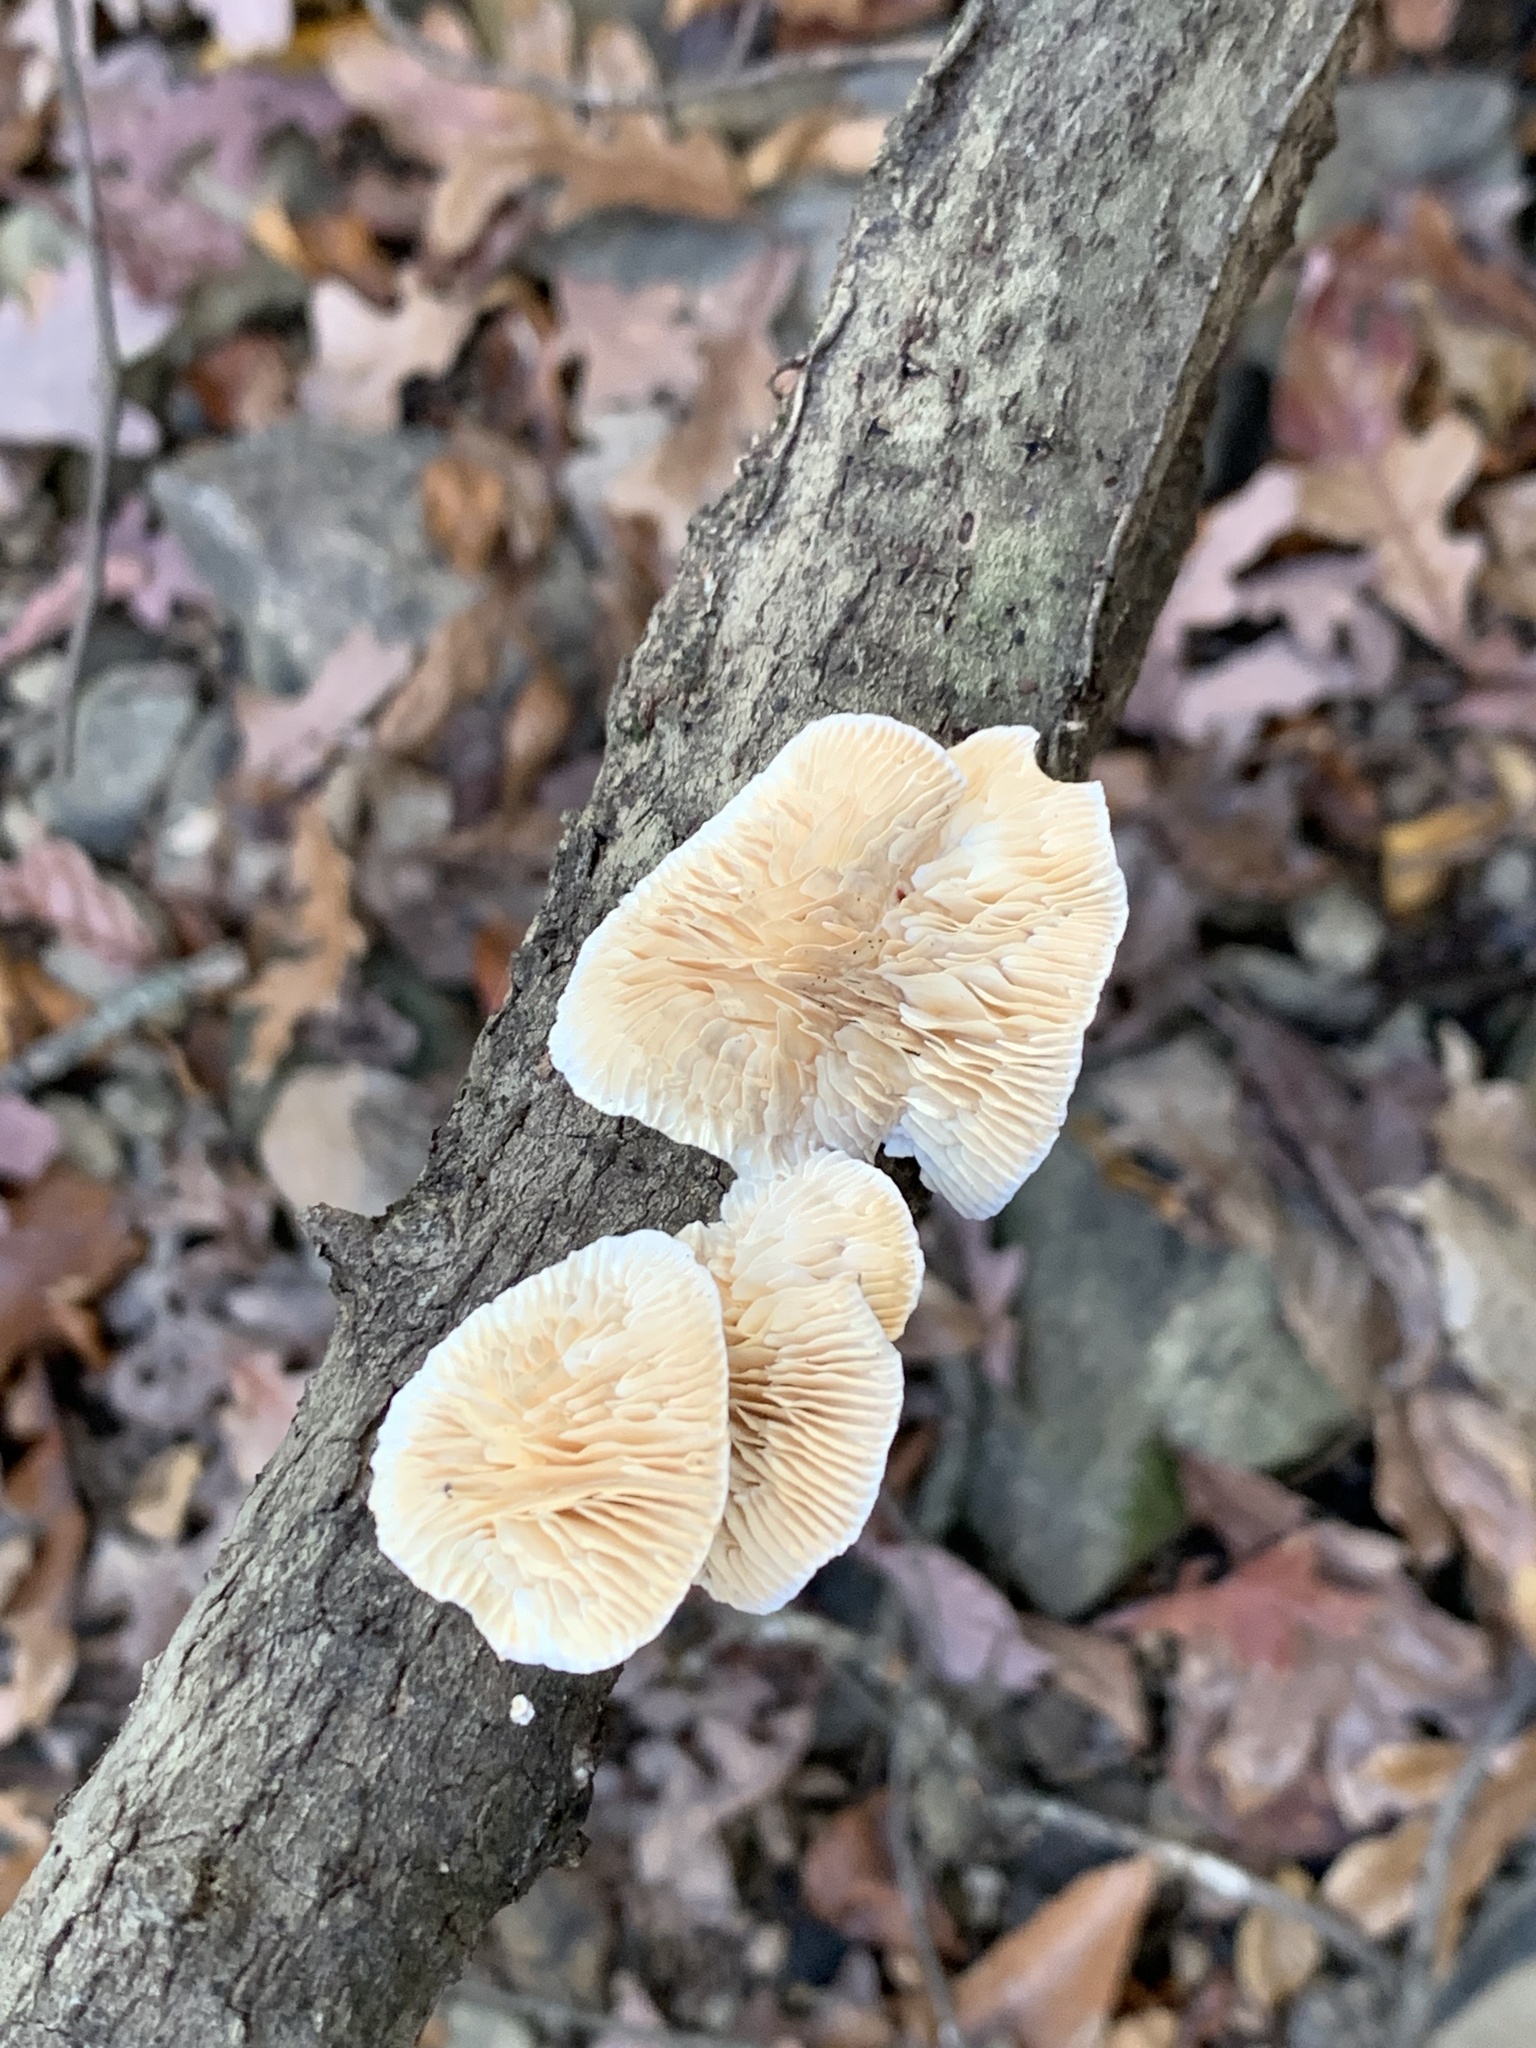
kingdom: Fungi
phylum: Basidiomycota
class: Agaricomycetes
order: Polyporales
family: Polyporaceae
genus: Lenzites
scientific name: Lenzites betulinus
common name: Birch mazegill
